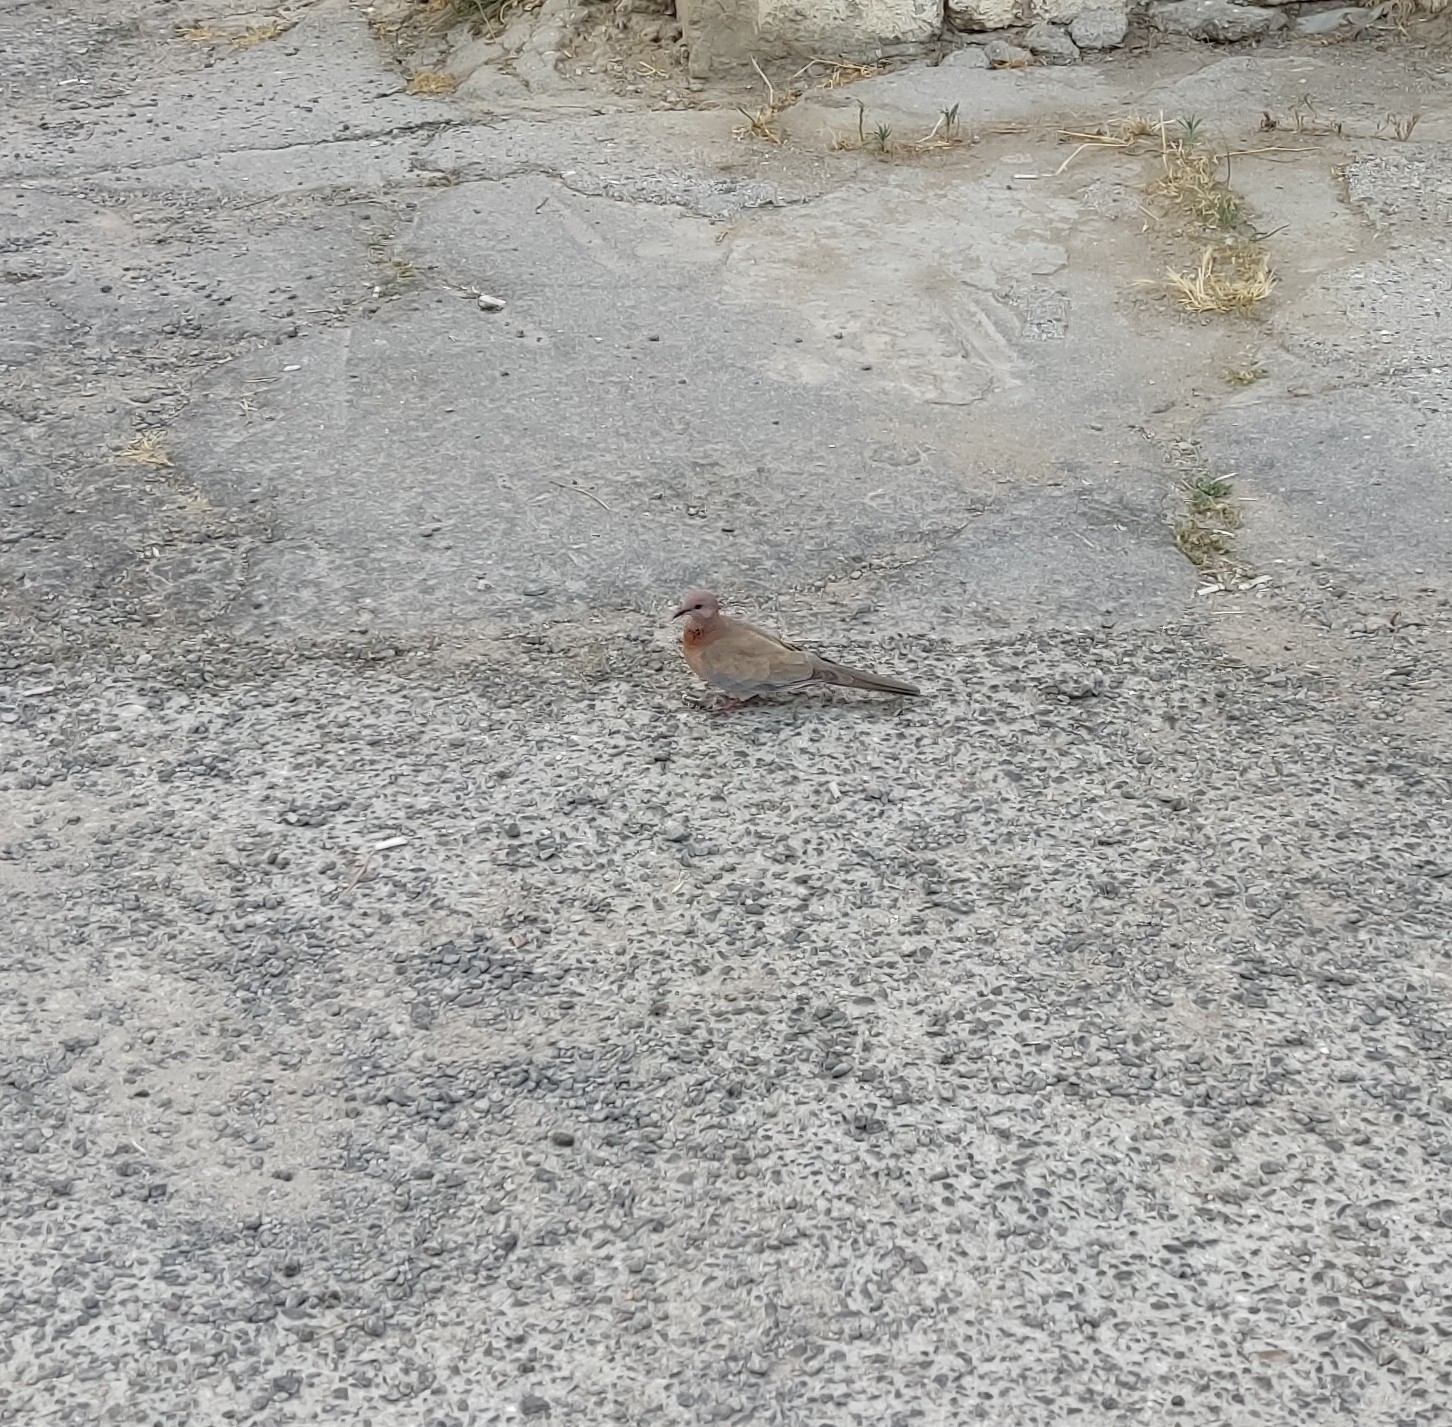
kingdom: Animalia
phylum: Chordata
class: Aves
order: Columbiformes
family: Columbidae
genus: Spilopelia
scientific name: Spilopelia senegalensis
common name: Laughing dove
